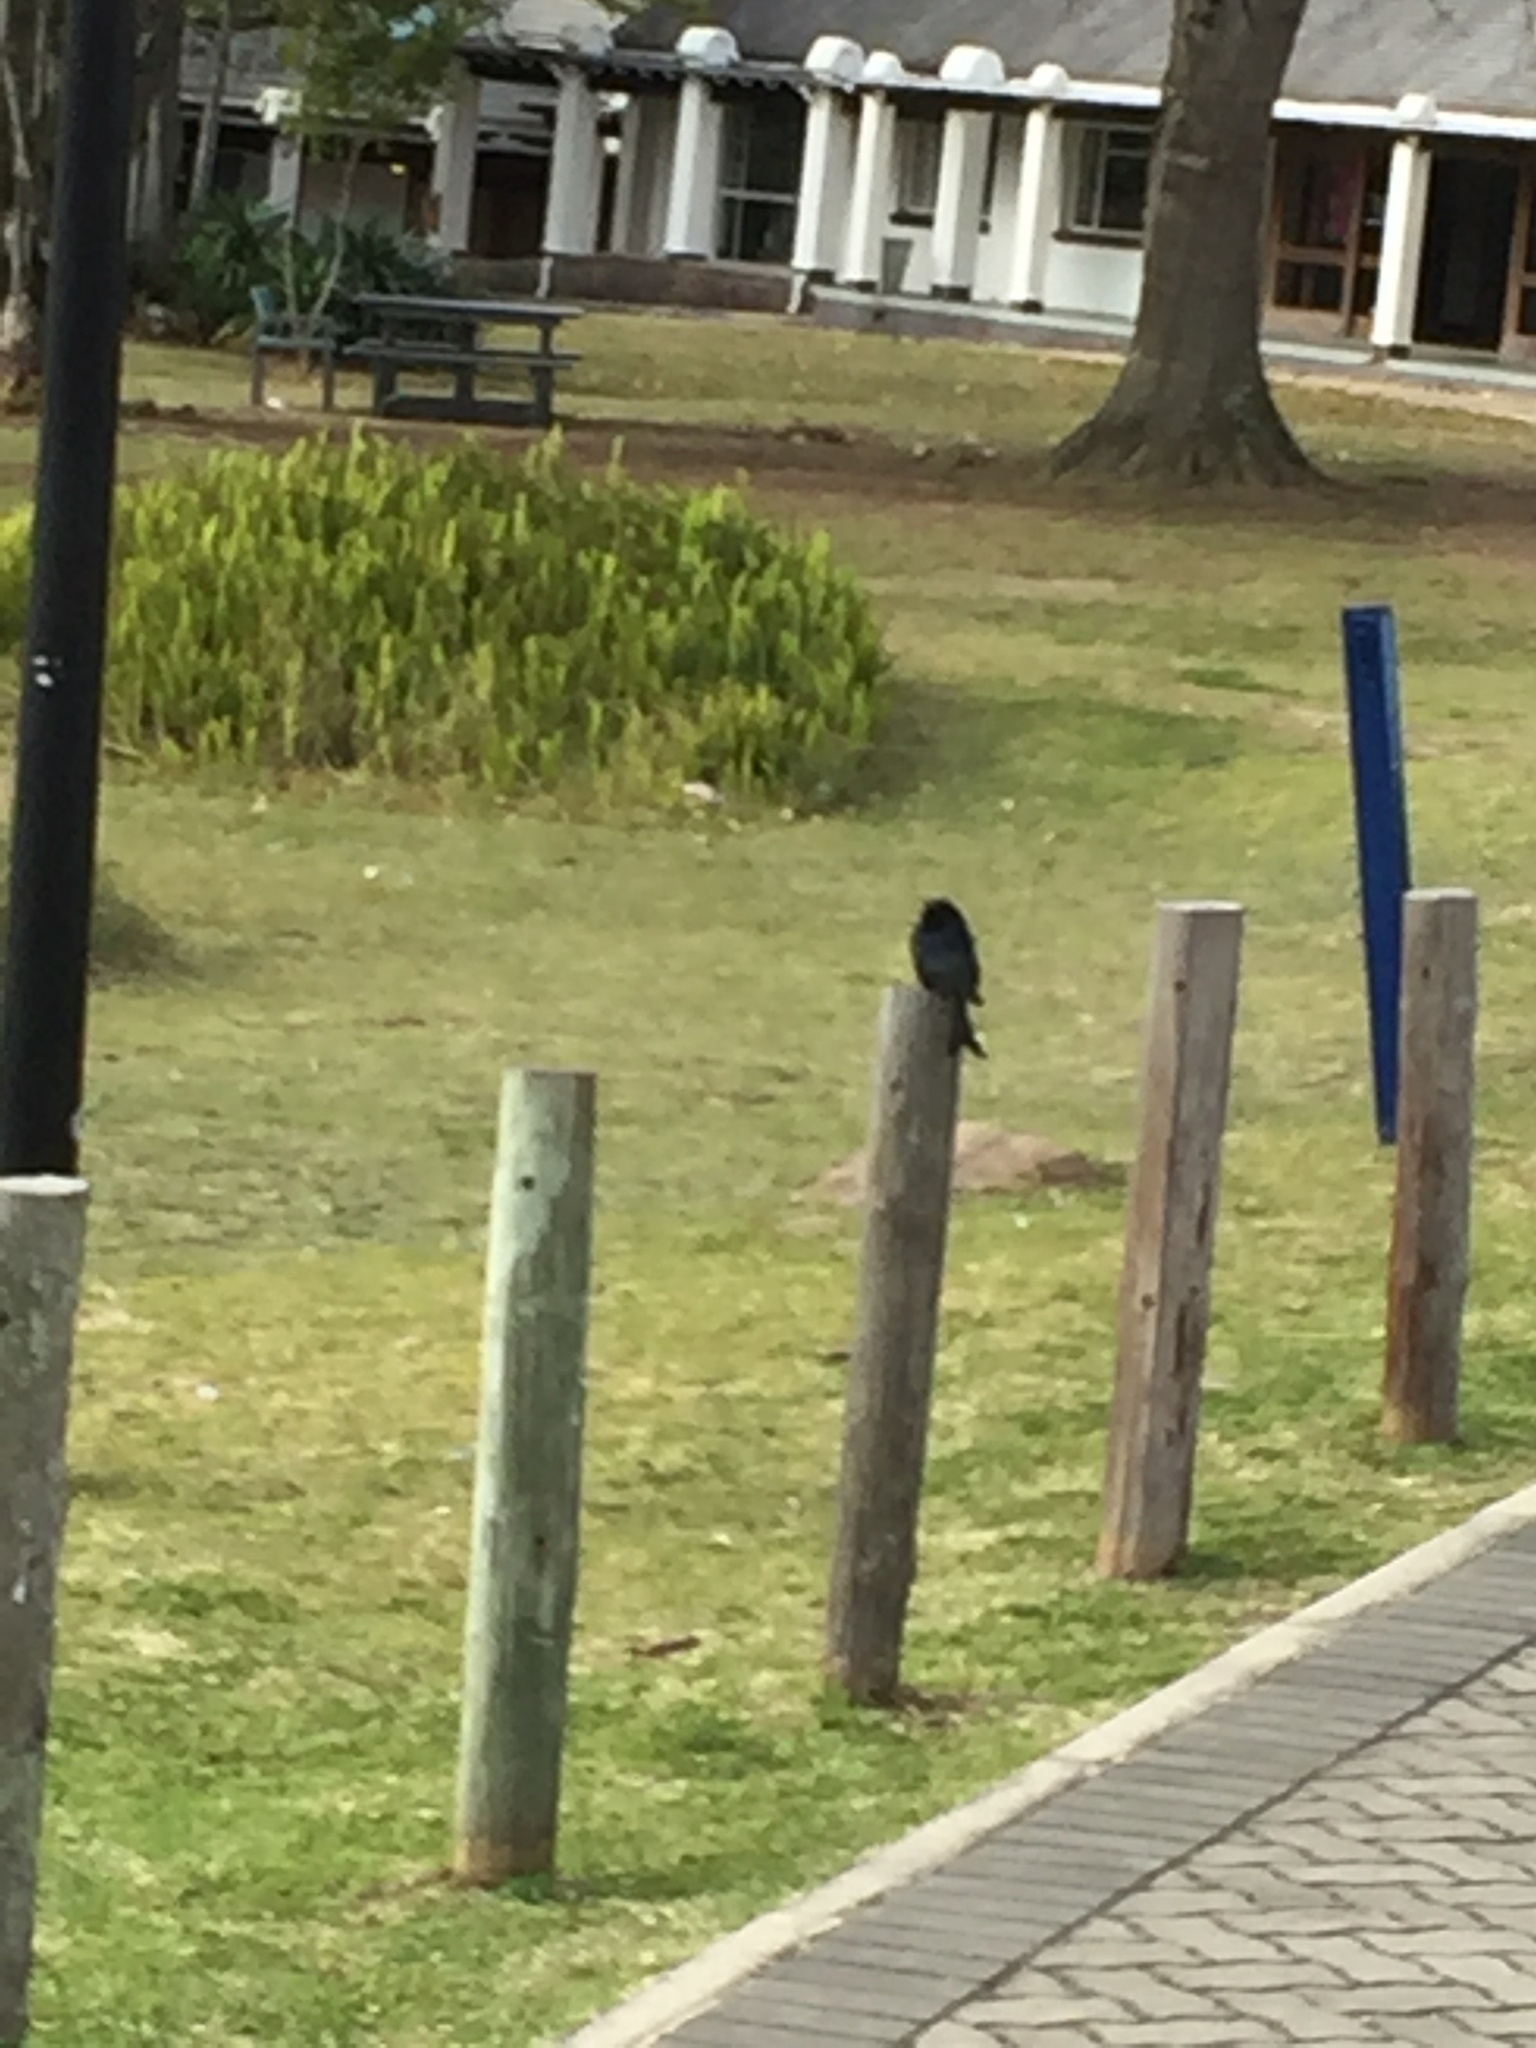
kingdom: Animalia
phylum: Chordata
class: Aves
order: Passeriformes
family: Dicruridae
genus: Dicrurus
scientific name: Dicrurus adsimilis
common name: Fork-tailed drongo
